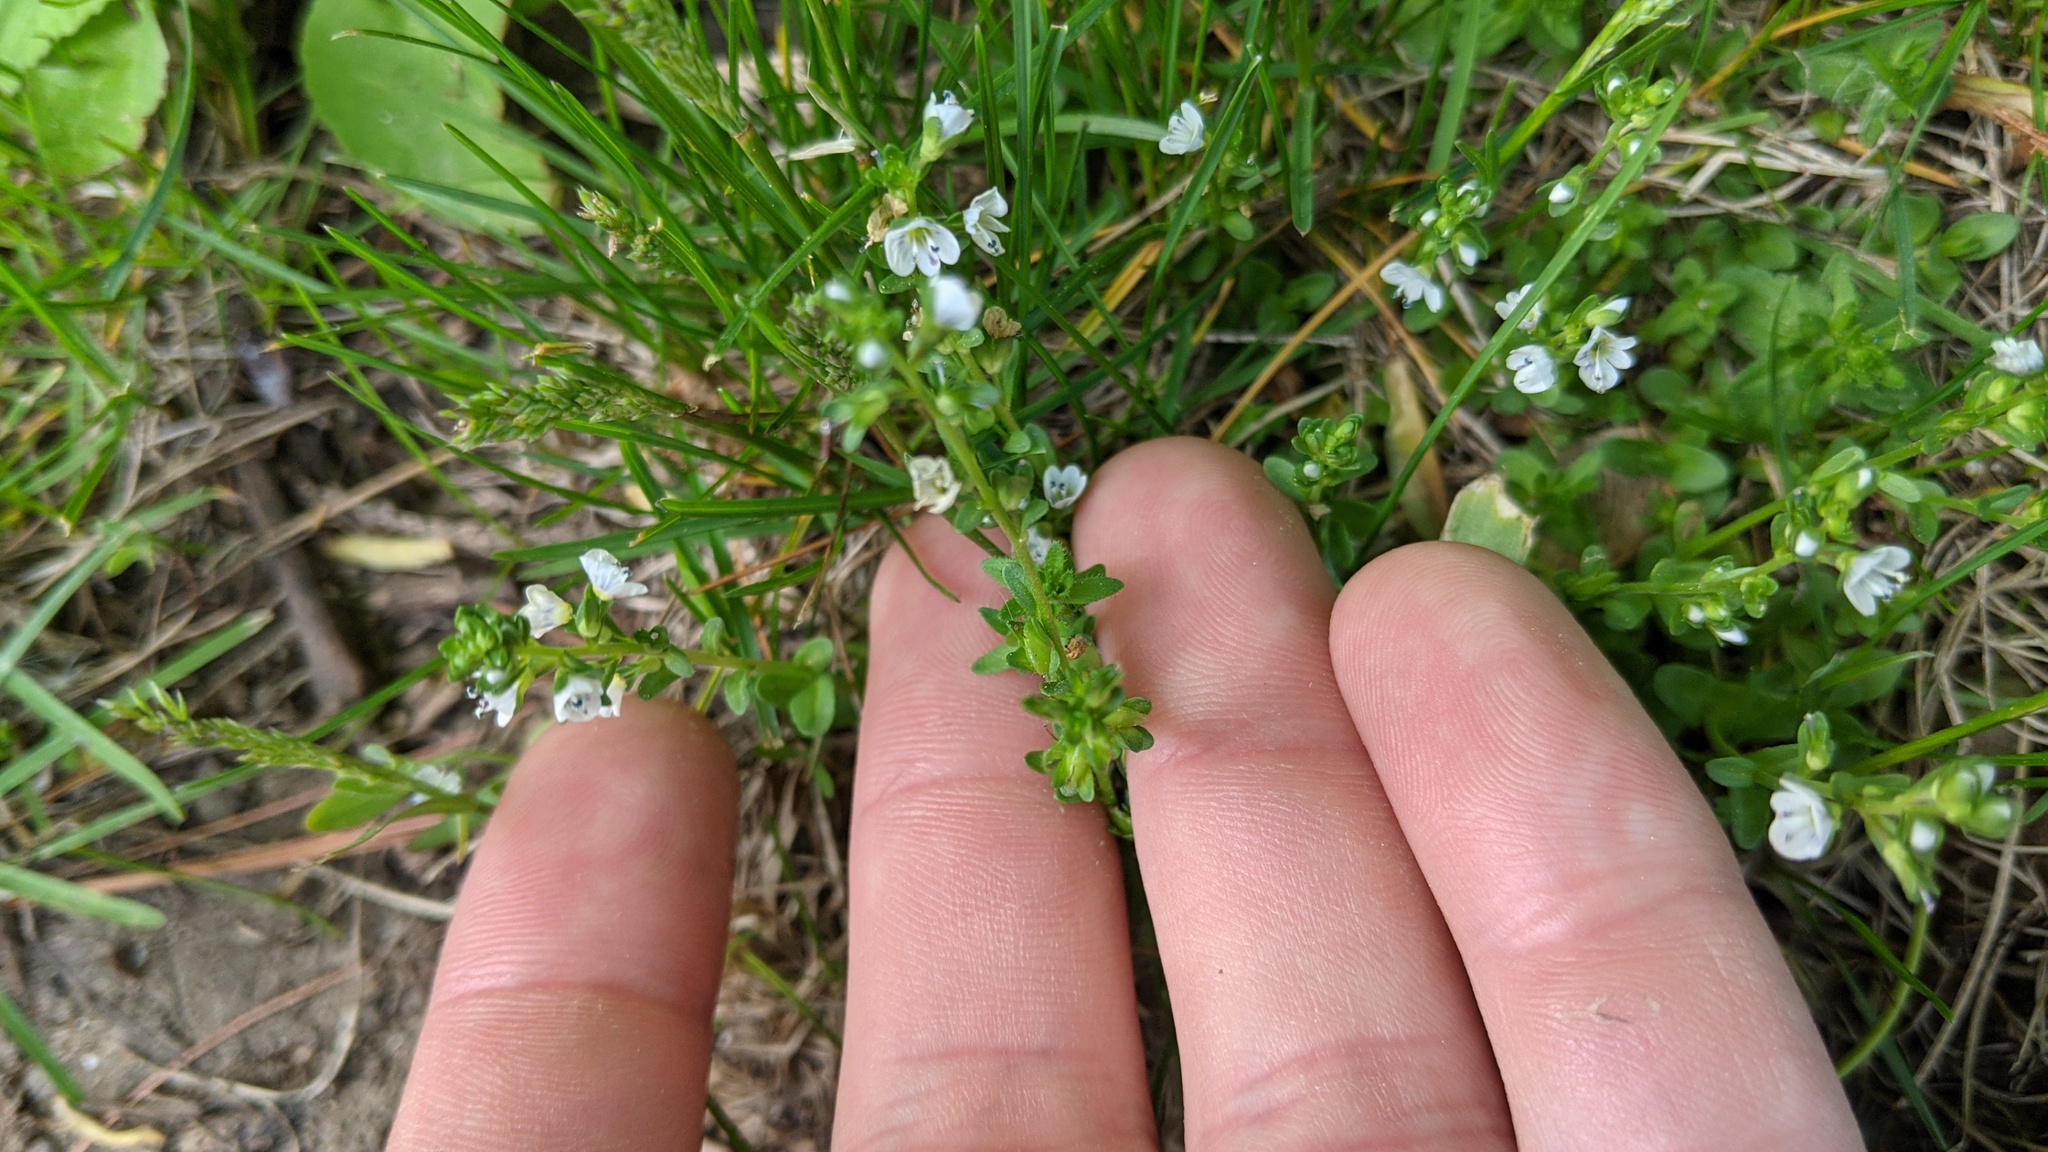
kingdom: Plantae
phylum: Tracheophyta
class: Magnoliopsida
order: Lamiales
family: Plantaginaceae
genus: Veronica
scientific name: Veronica serpyllifolia
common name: Thyme-leaved speedwell
